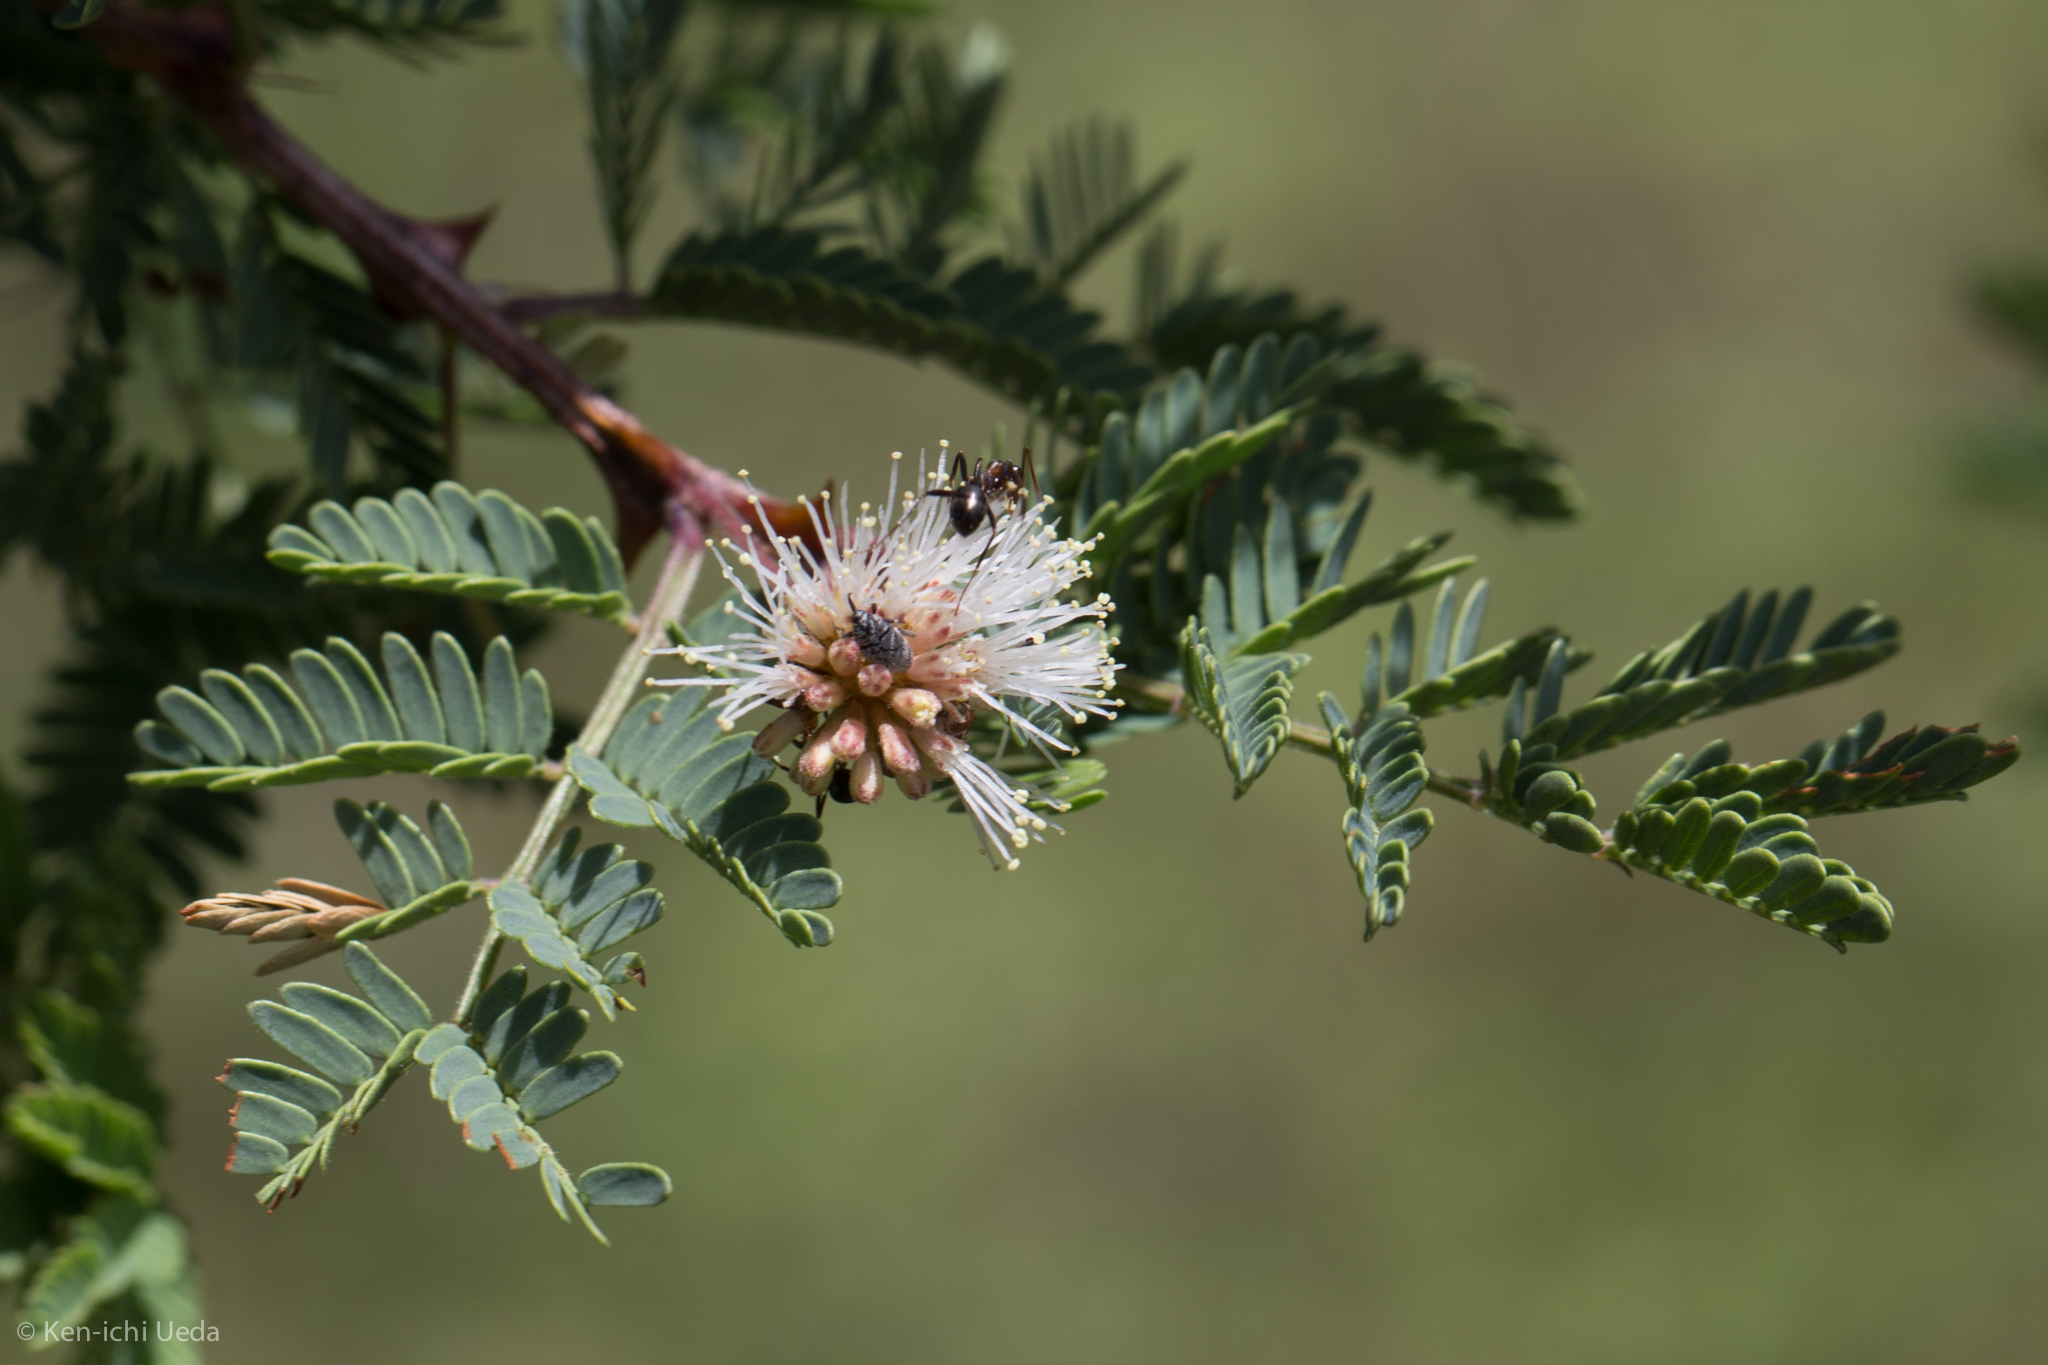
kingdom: Plantae
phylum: Tracheophyta
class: Magnoliopsida
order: Fabales
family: Fabaceae
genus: Mimosa
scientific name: Mimosa biuncifera
